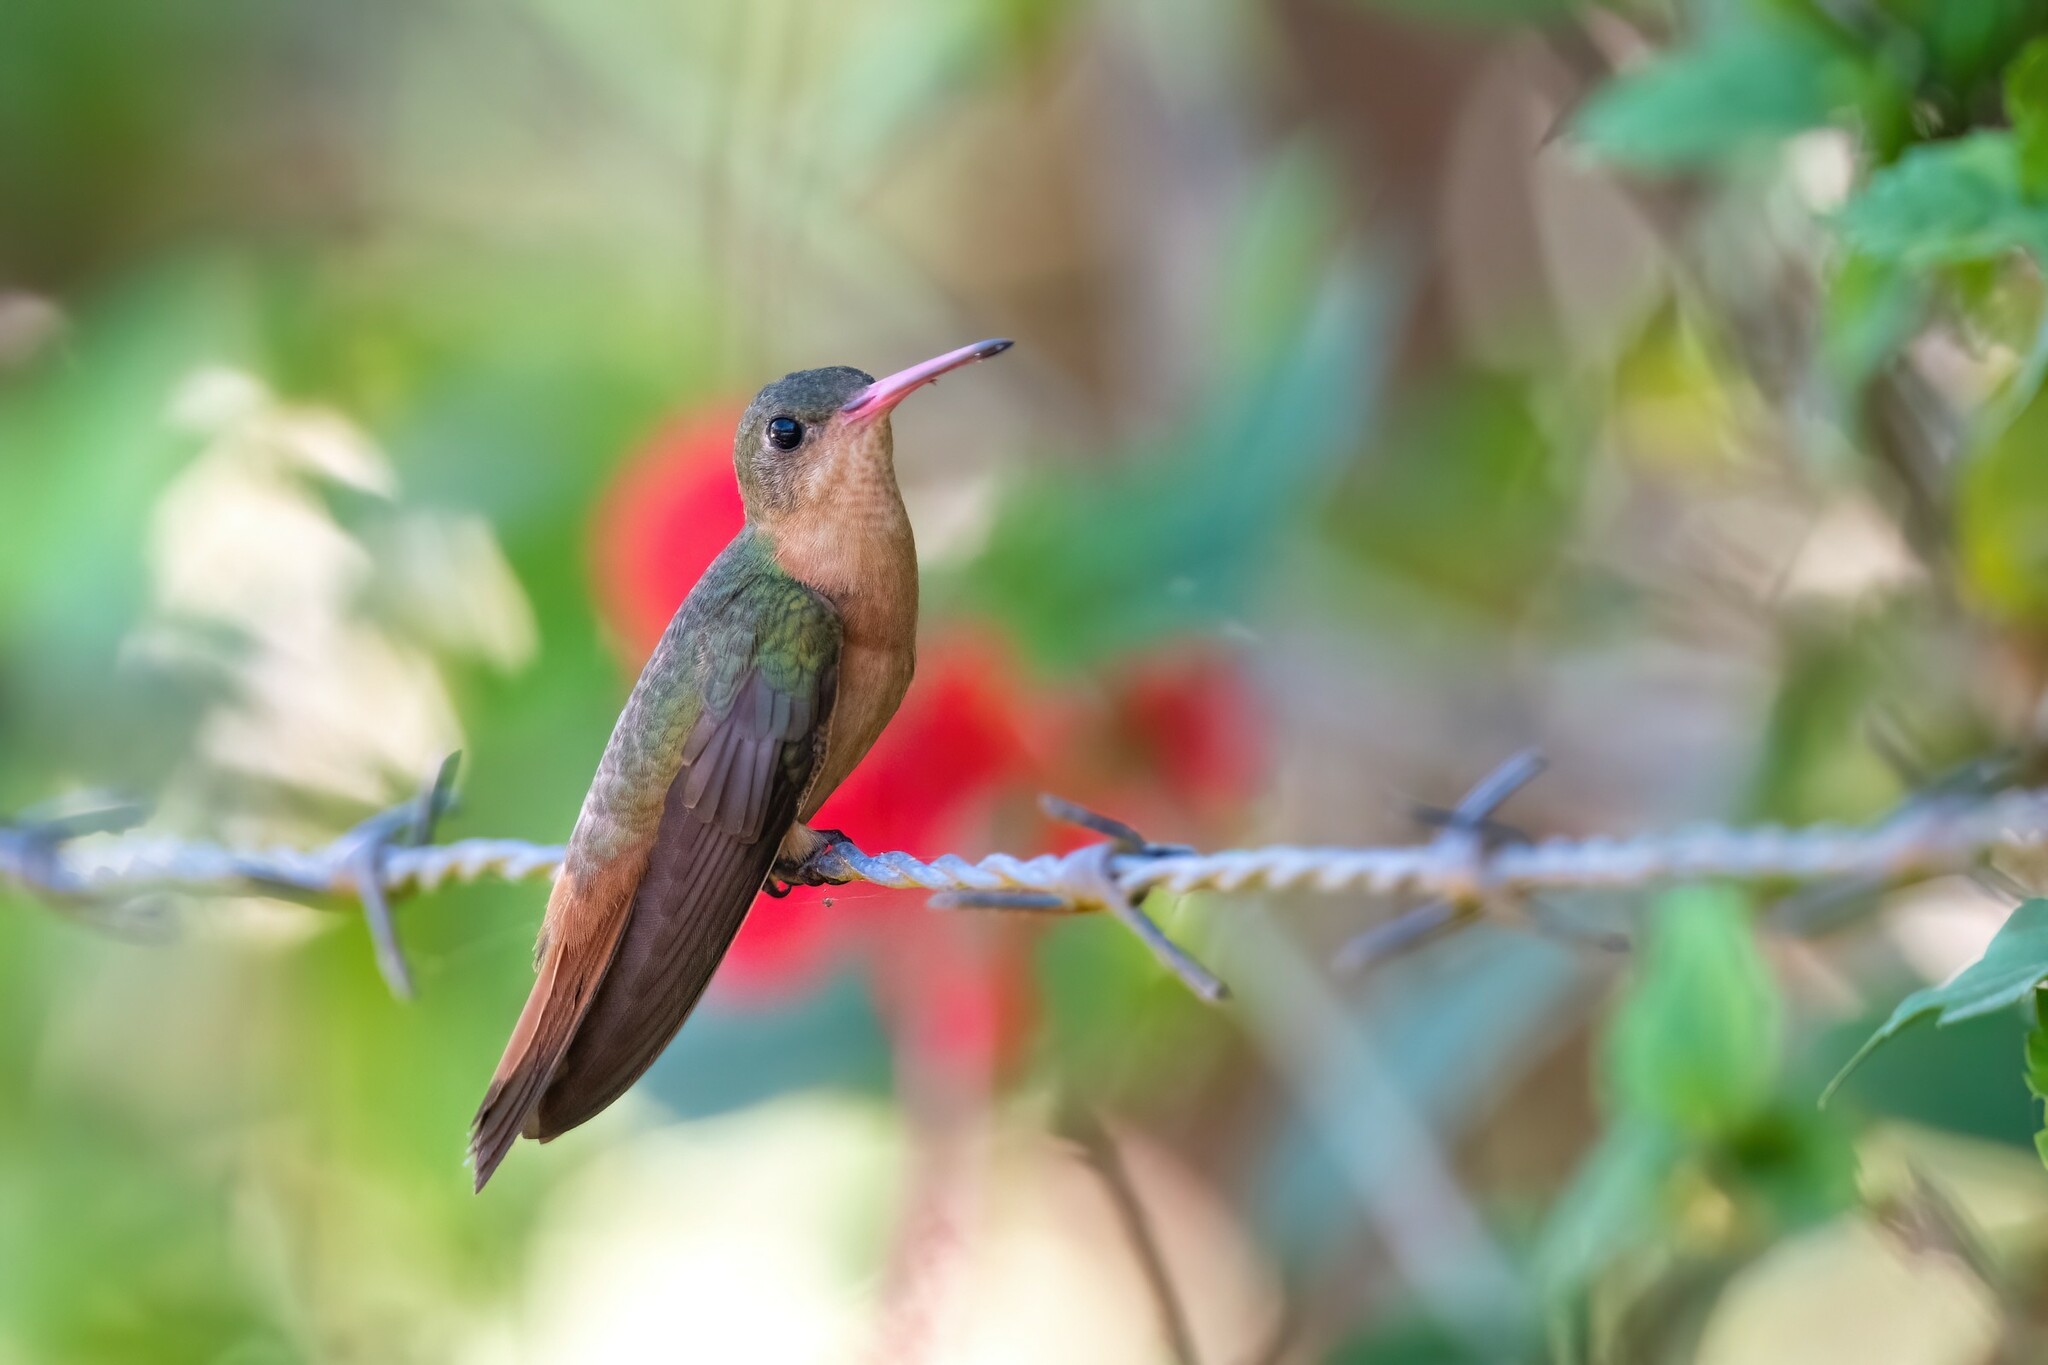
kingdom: Animalia
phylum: Chordata
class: Aves
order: Apodiformes
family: Trochilidae
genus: Amazilia
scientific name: Amazilia rutila
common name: Cinnamon hummingbird
